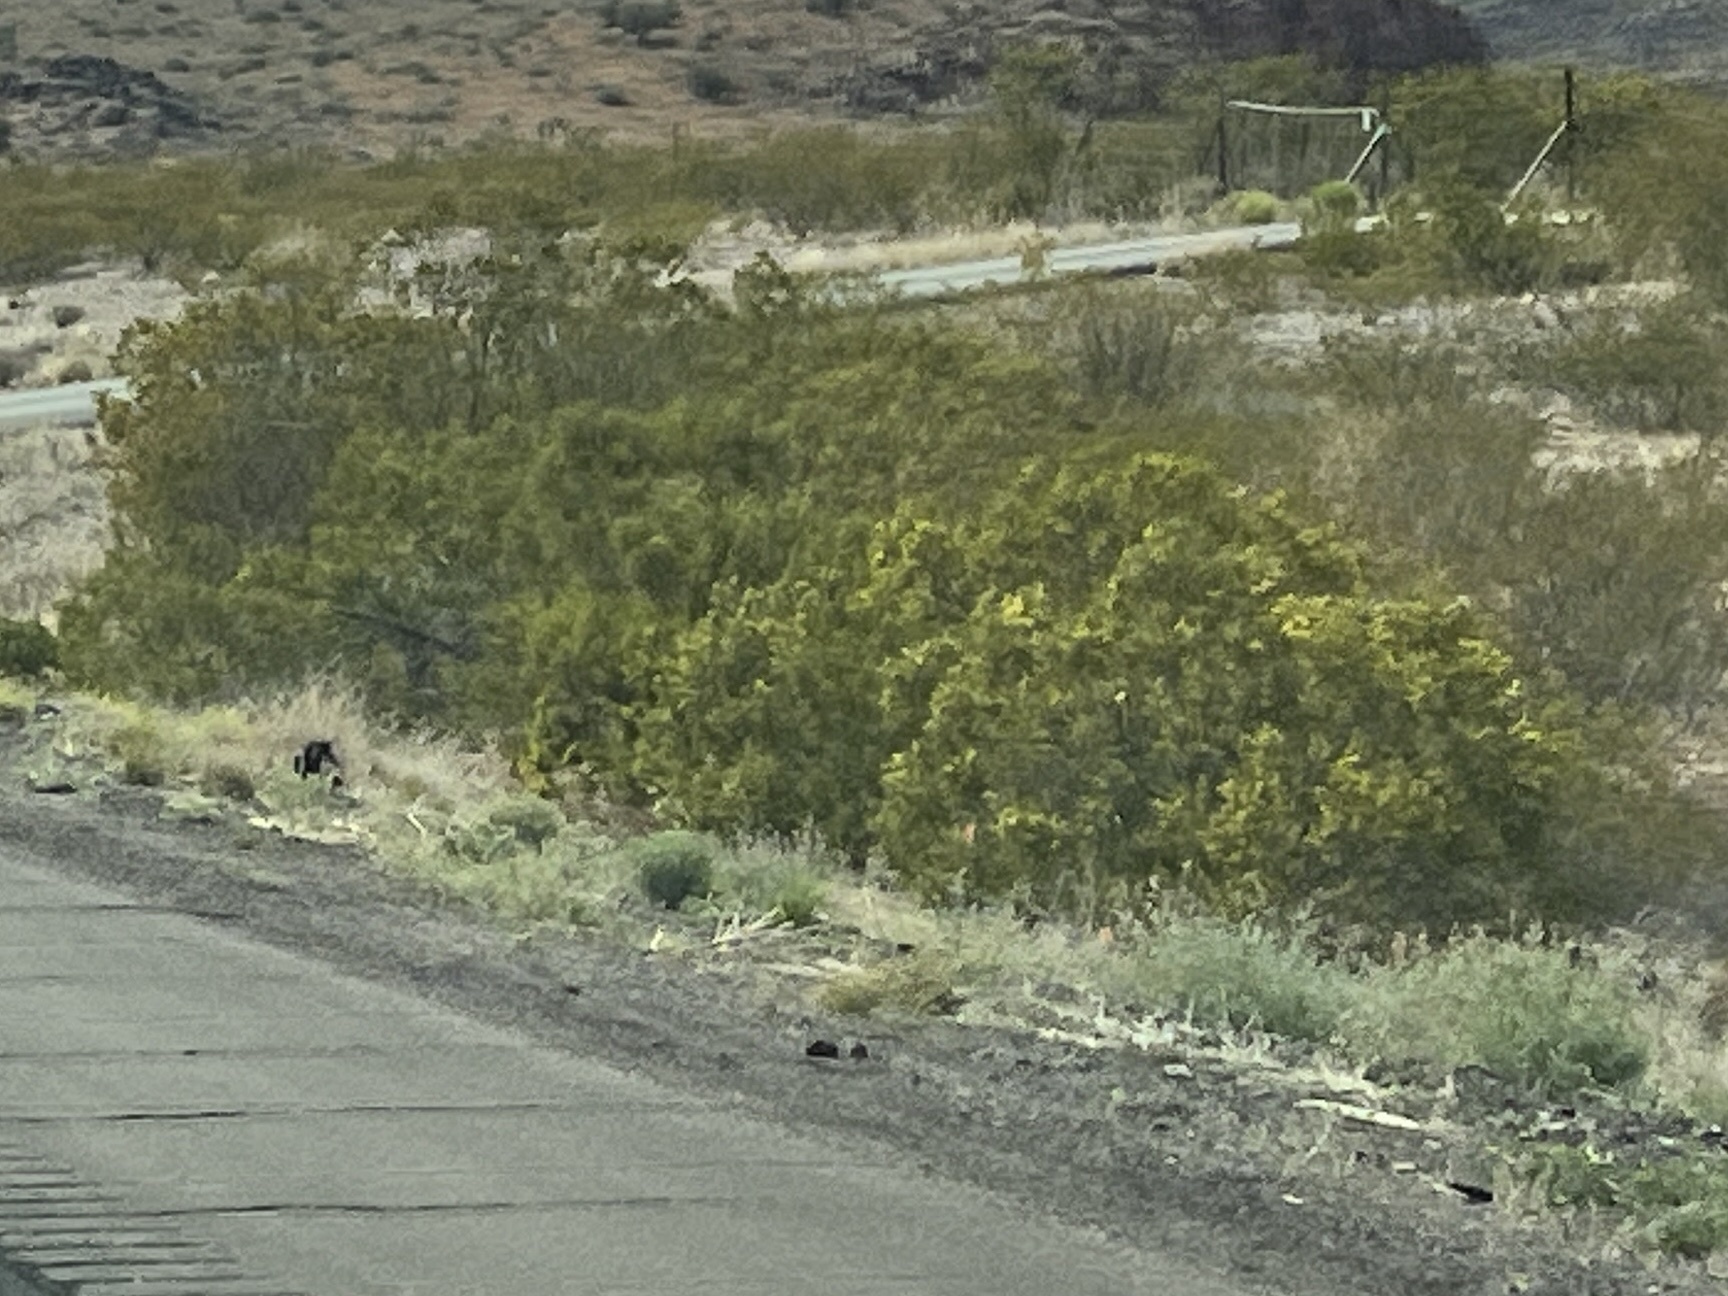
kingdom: Plantae
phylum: Tracheophyta
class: Magnoliopsida
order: Zygophyllales
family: Zygophyllaceae
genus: Larrea
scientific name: Larrea tridentata
